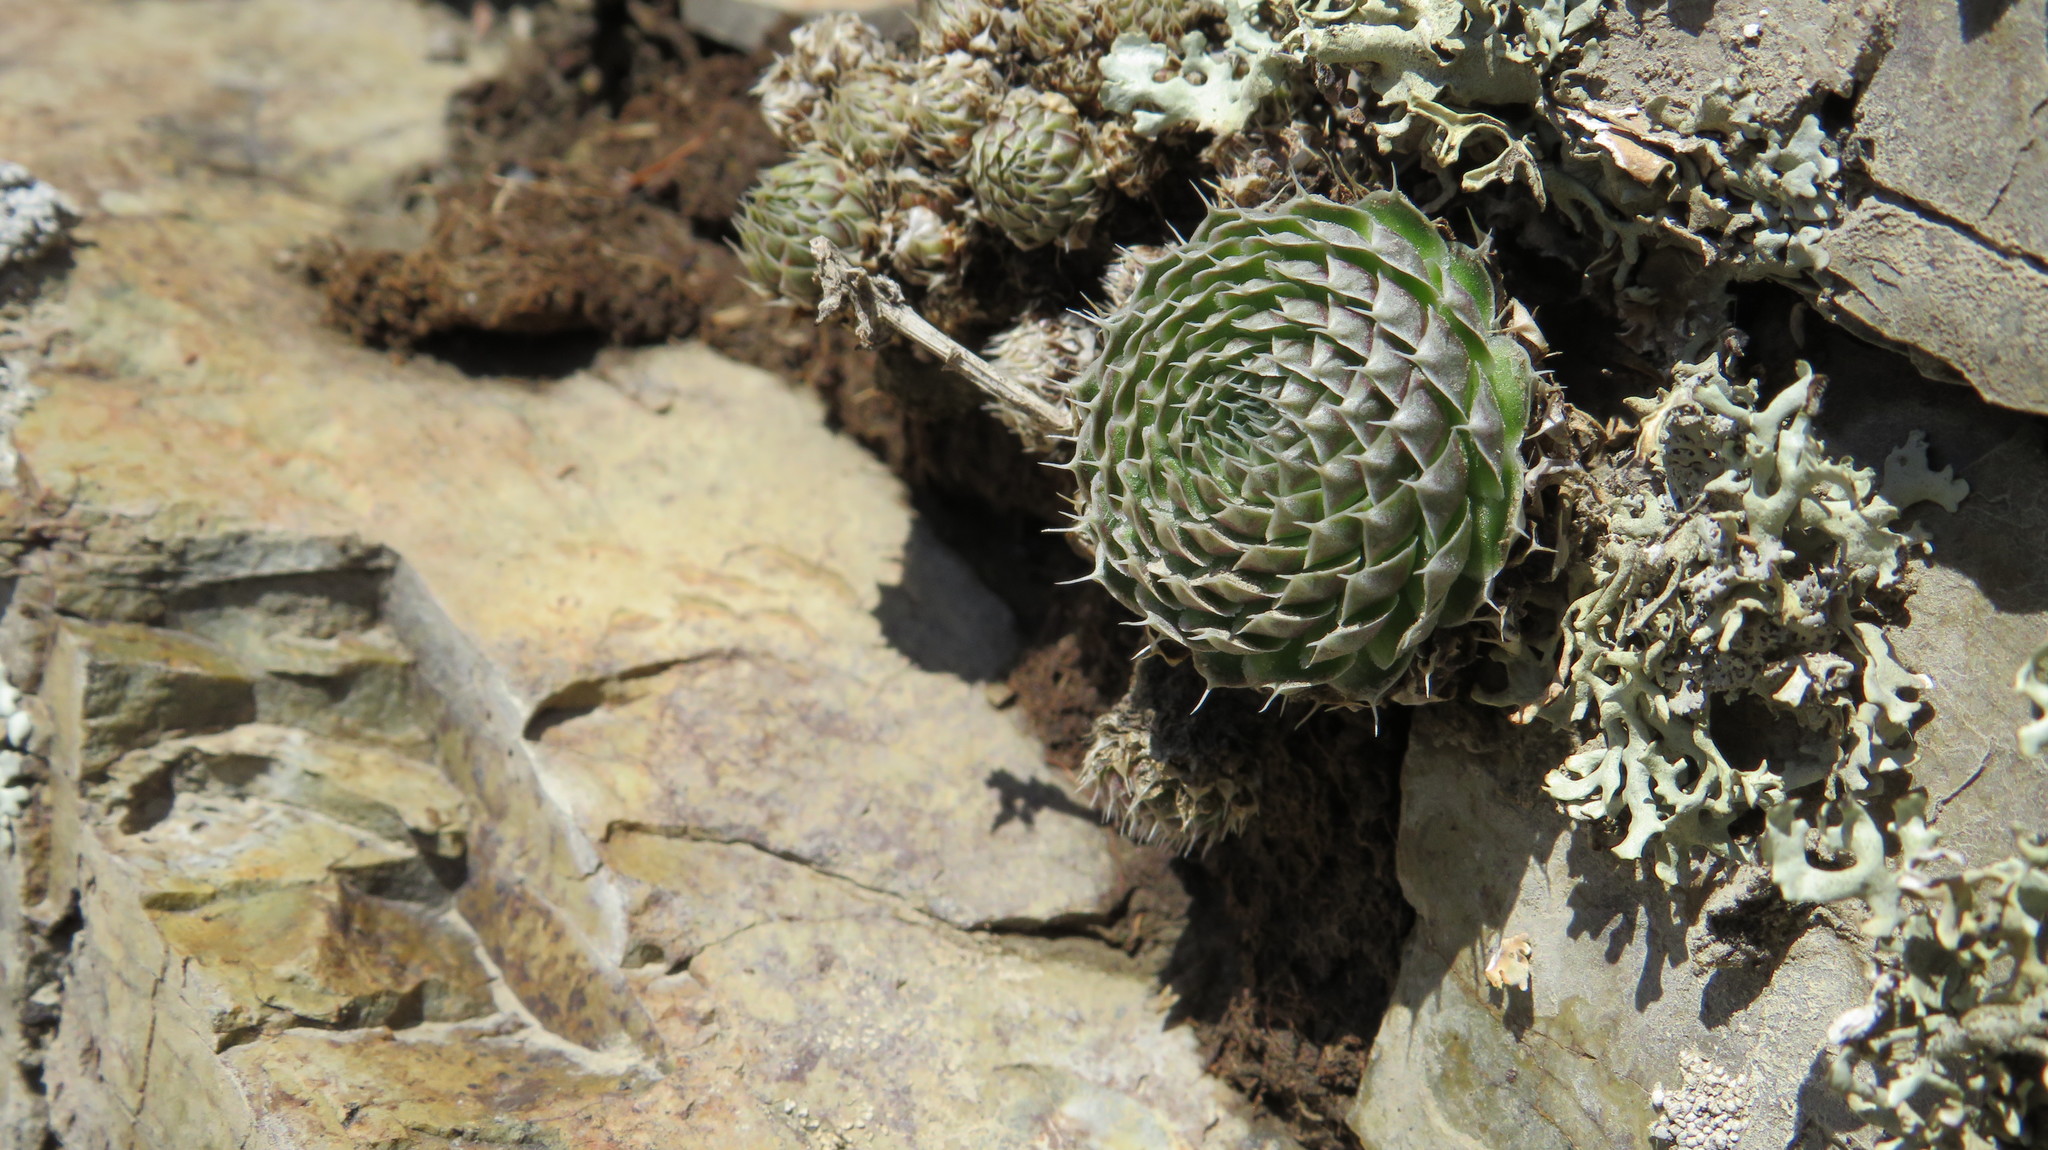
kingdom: Plantae
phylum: Tracheophyta
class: Magnoliopsida
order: Saxifragales
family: Crassulaceae
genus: Orostachys
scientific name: Orostachys spinosa
